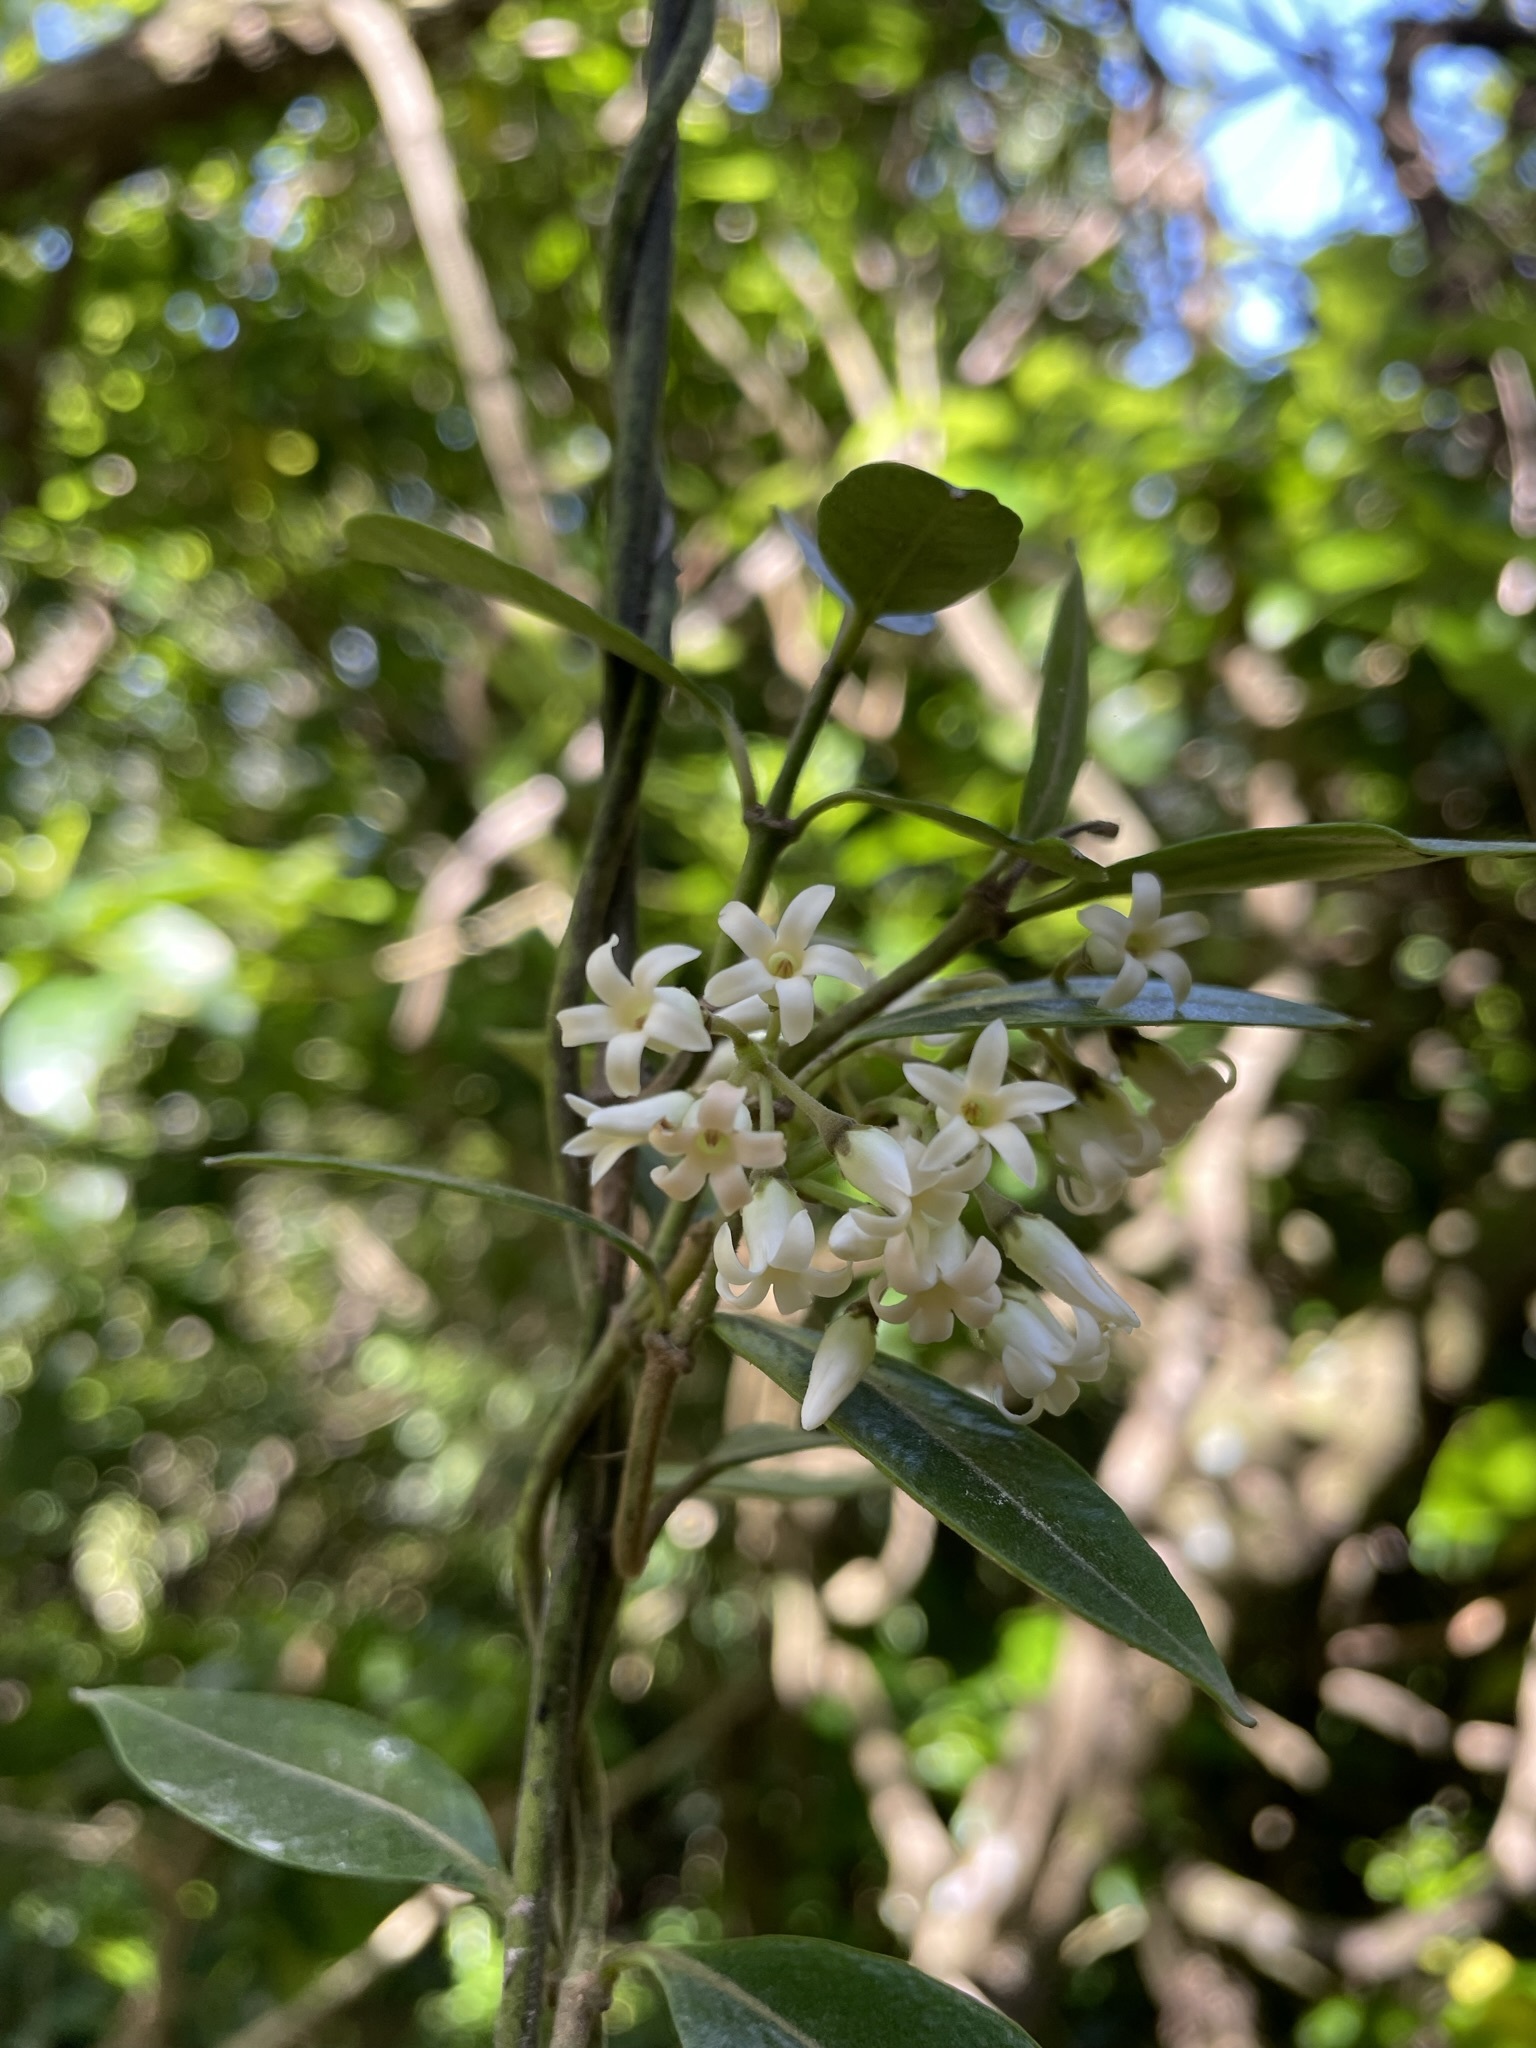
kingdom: Plantae
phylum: Tracheophyta
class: Magnoliopsida
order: Gentianales
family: Apocynaceae
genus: Parsonsia
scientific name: Parsonsia heterophylla
